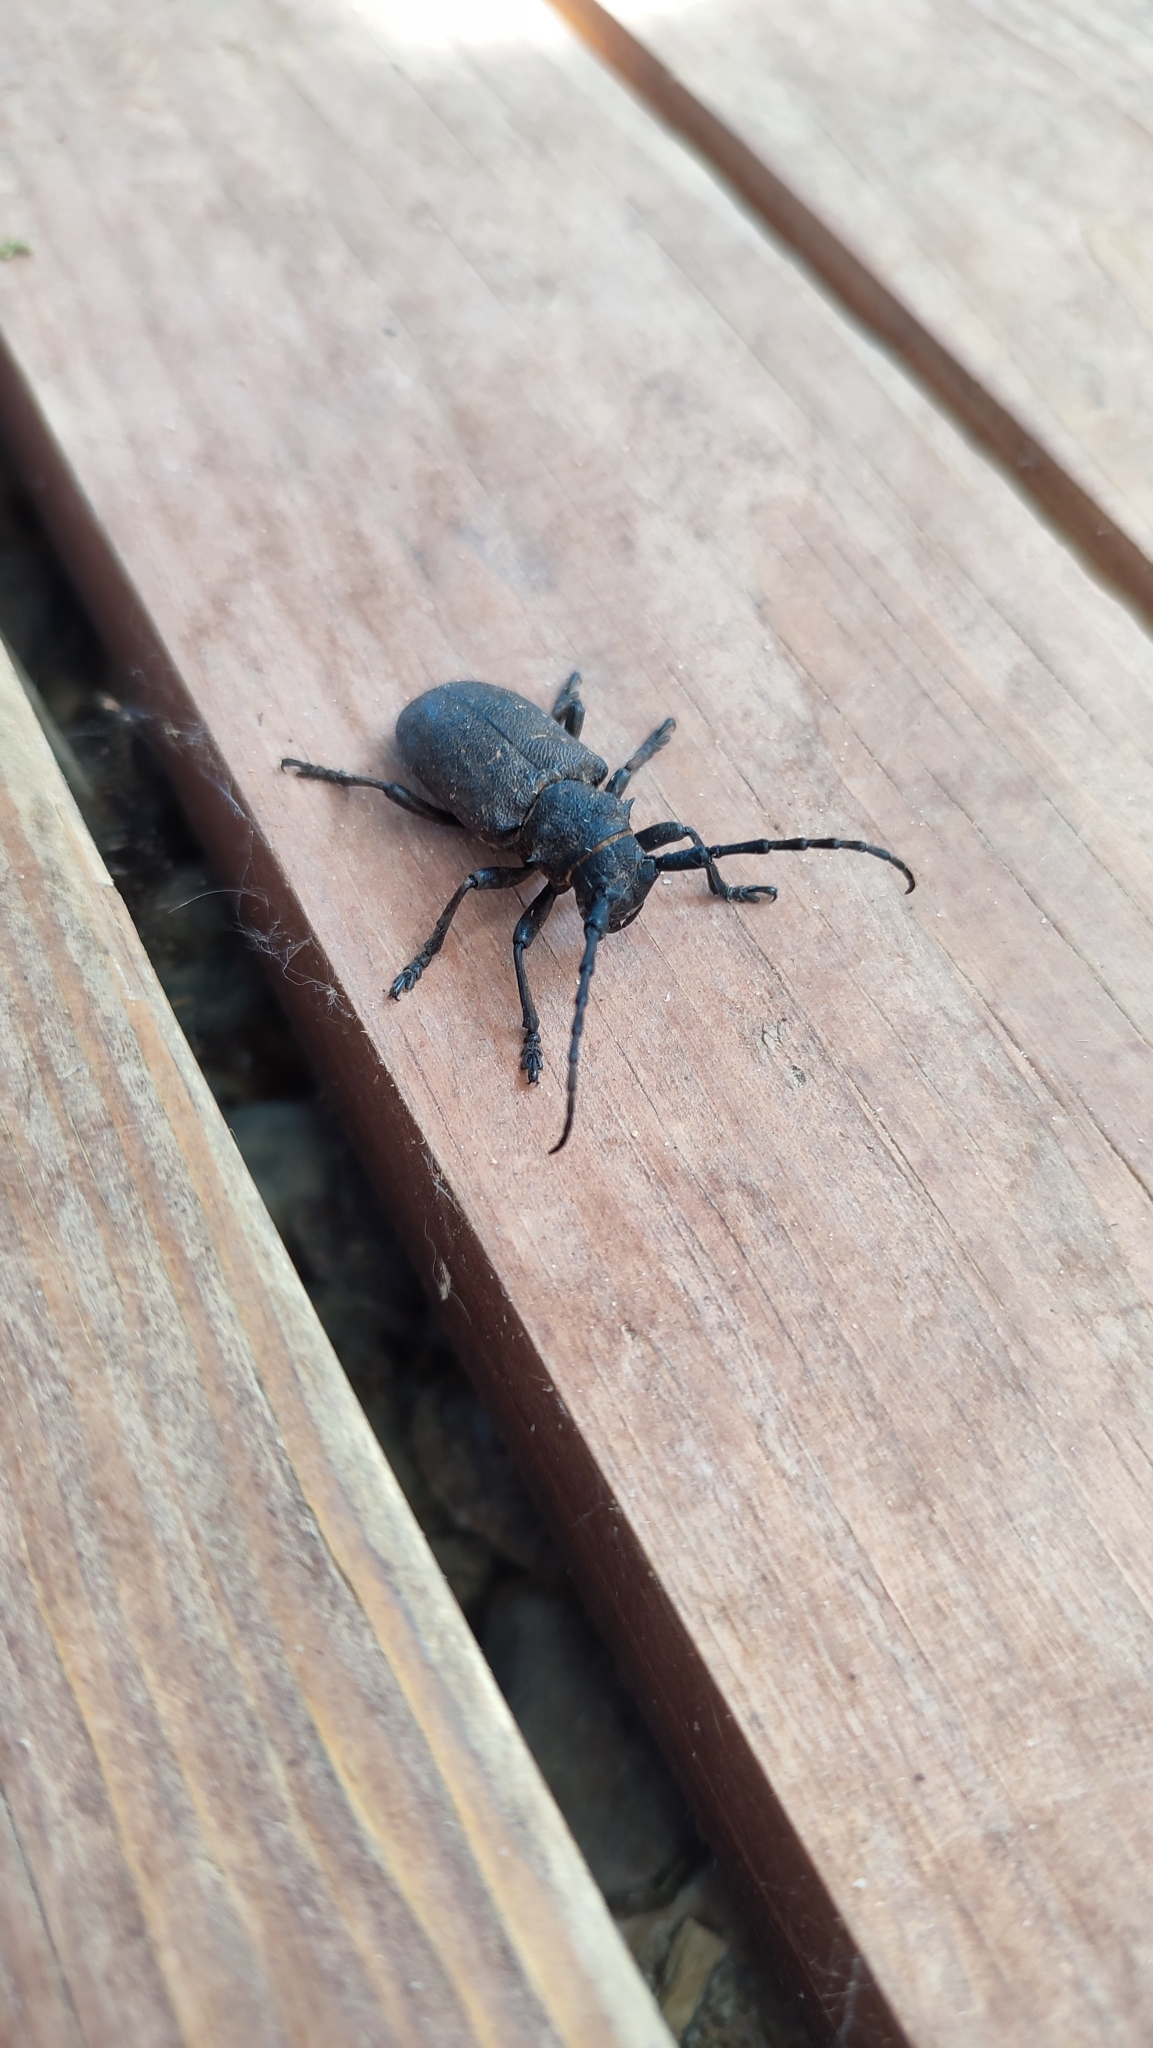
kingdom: Animalia
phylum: Arthropoda
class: Insecta
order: Coleoptera
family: Cerambycidae
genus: Lamia
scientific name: Lamia textor
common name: Weaver beetle
